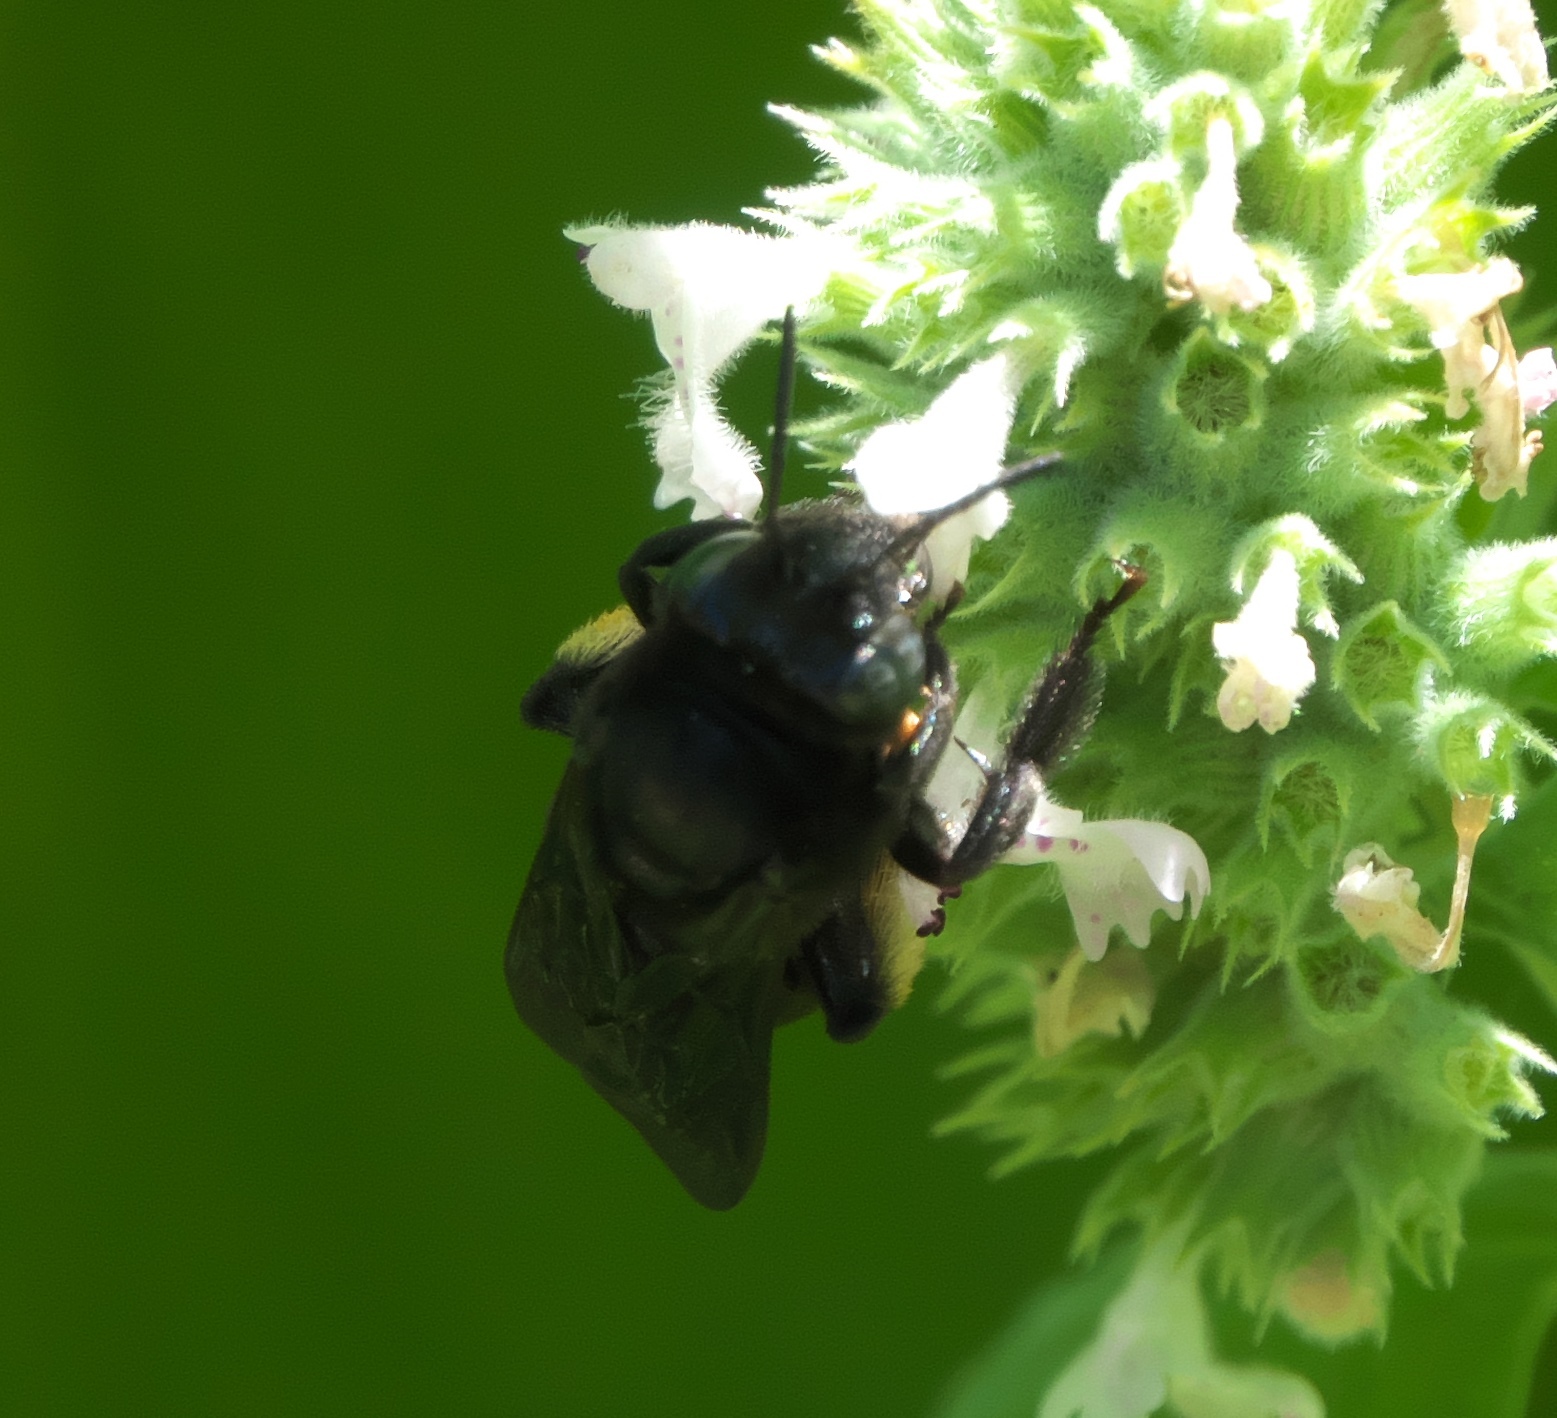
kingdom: Animalia
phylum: Arthropoda
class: Insecta
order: Hymenoptera
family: Apidae
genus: Melissodes
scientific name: Melissodes bimaculatus
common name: Two-spotted long-horned bee
